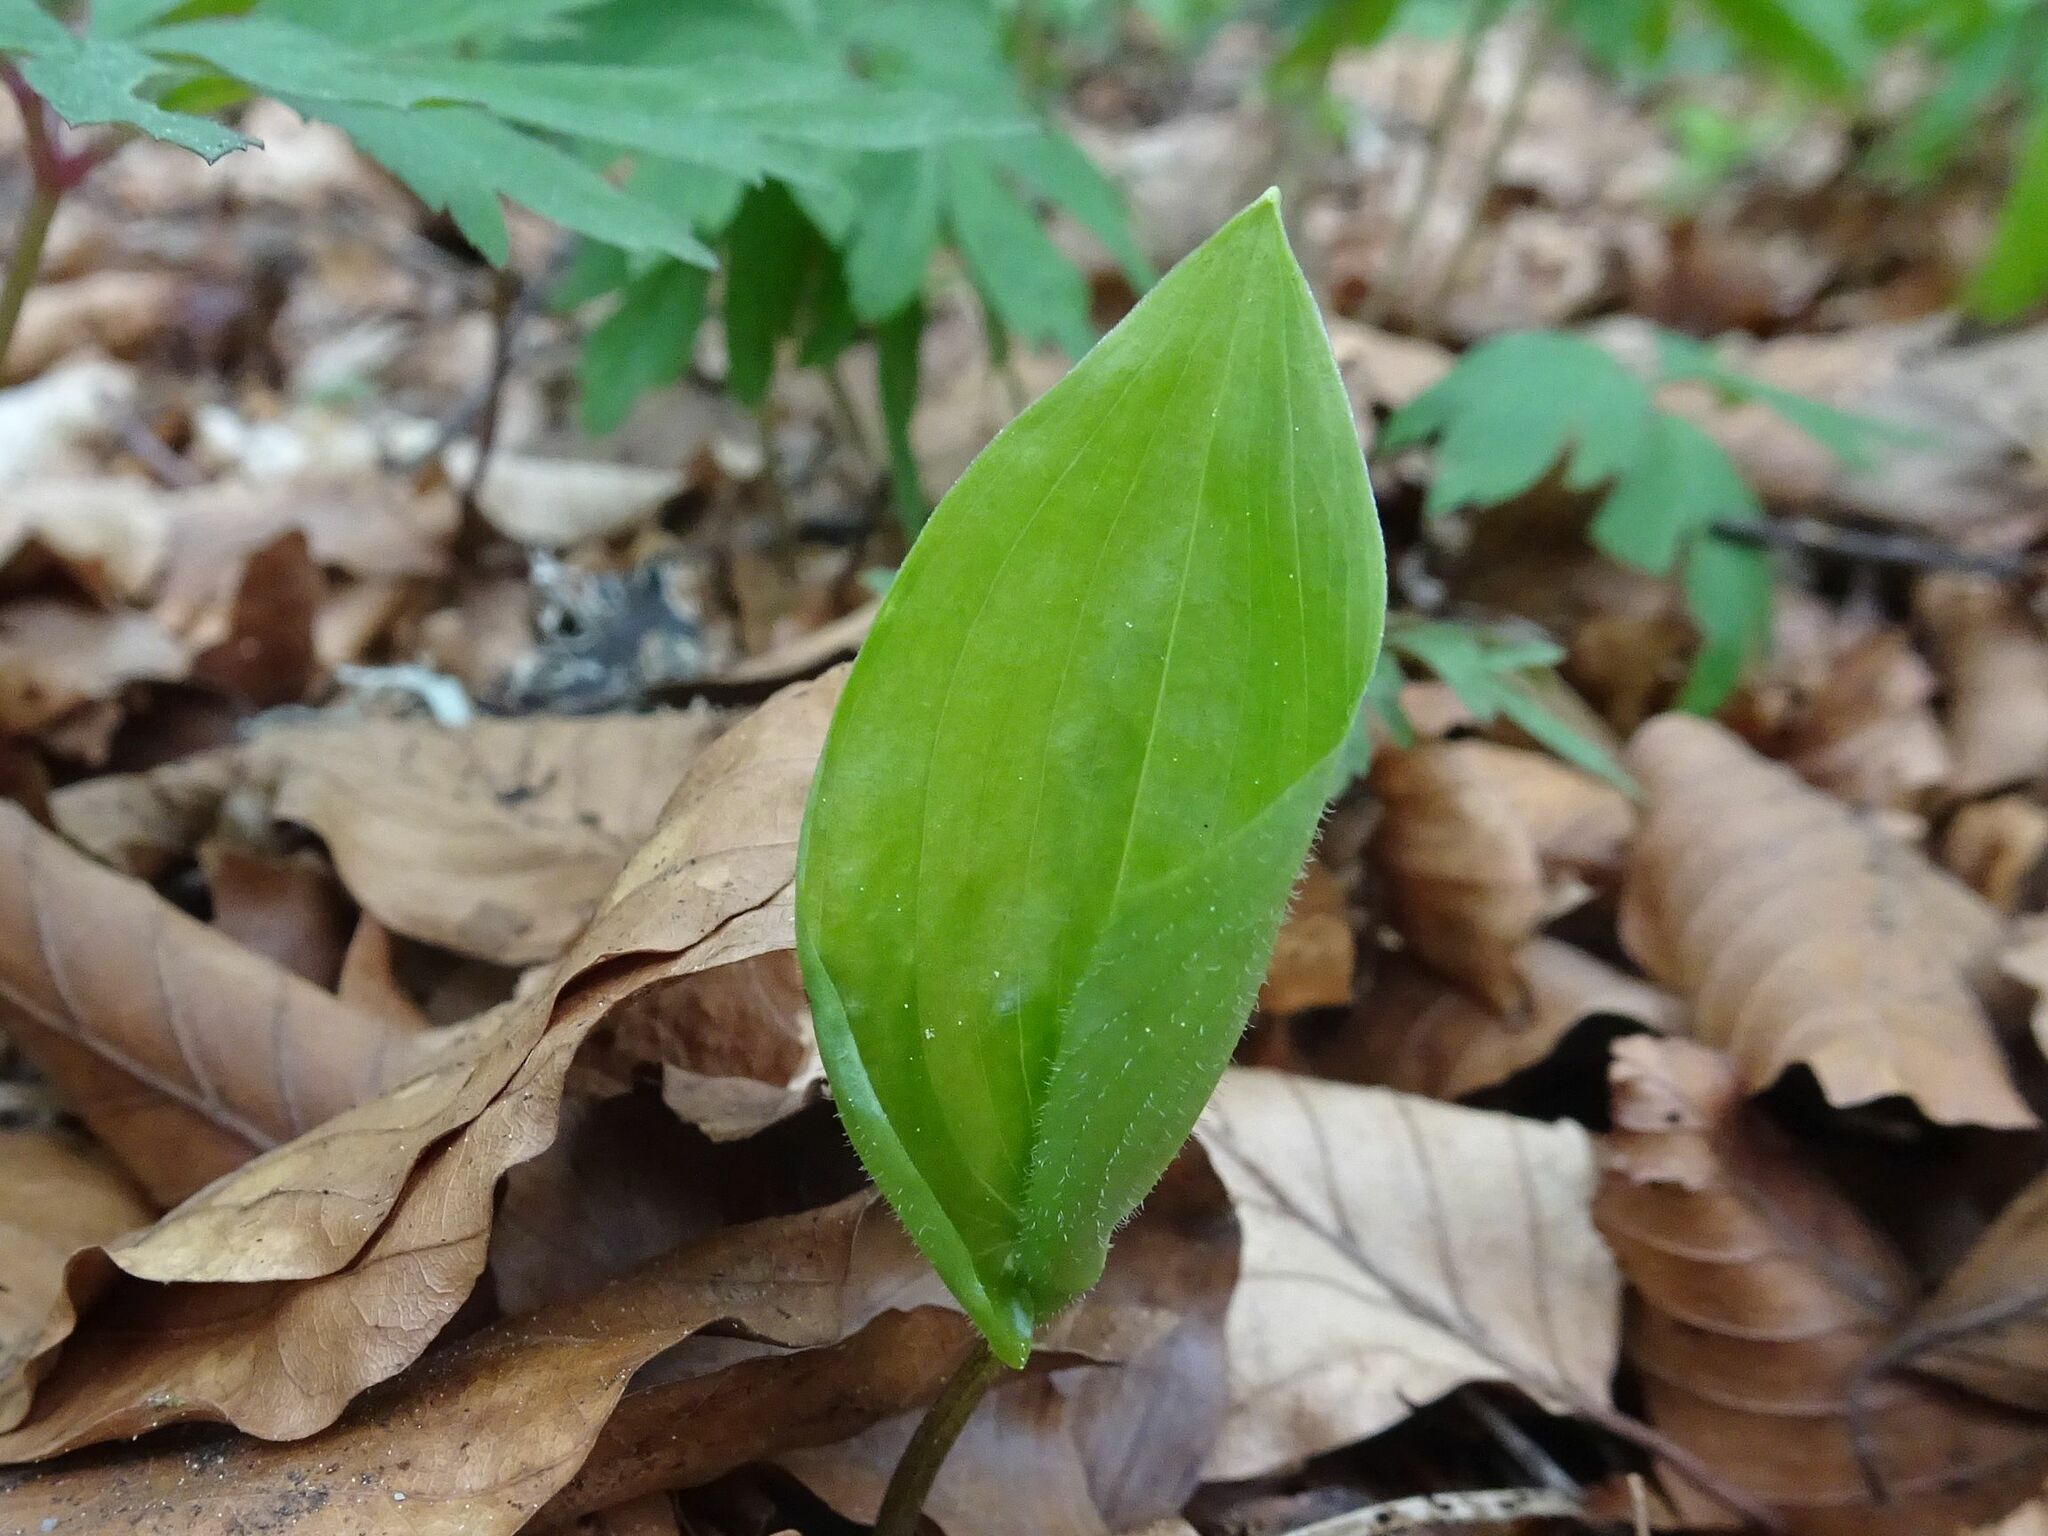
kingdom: Plantae
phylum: Tracheophyta
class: Liliopsida
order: Asparagales
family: Asparagaceae
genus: Maianthemum
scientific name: Maianthemum bifolium
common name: May lily
